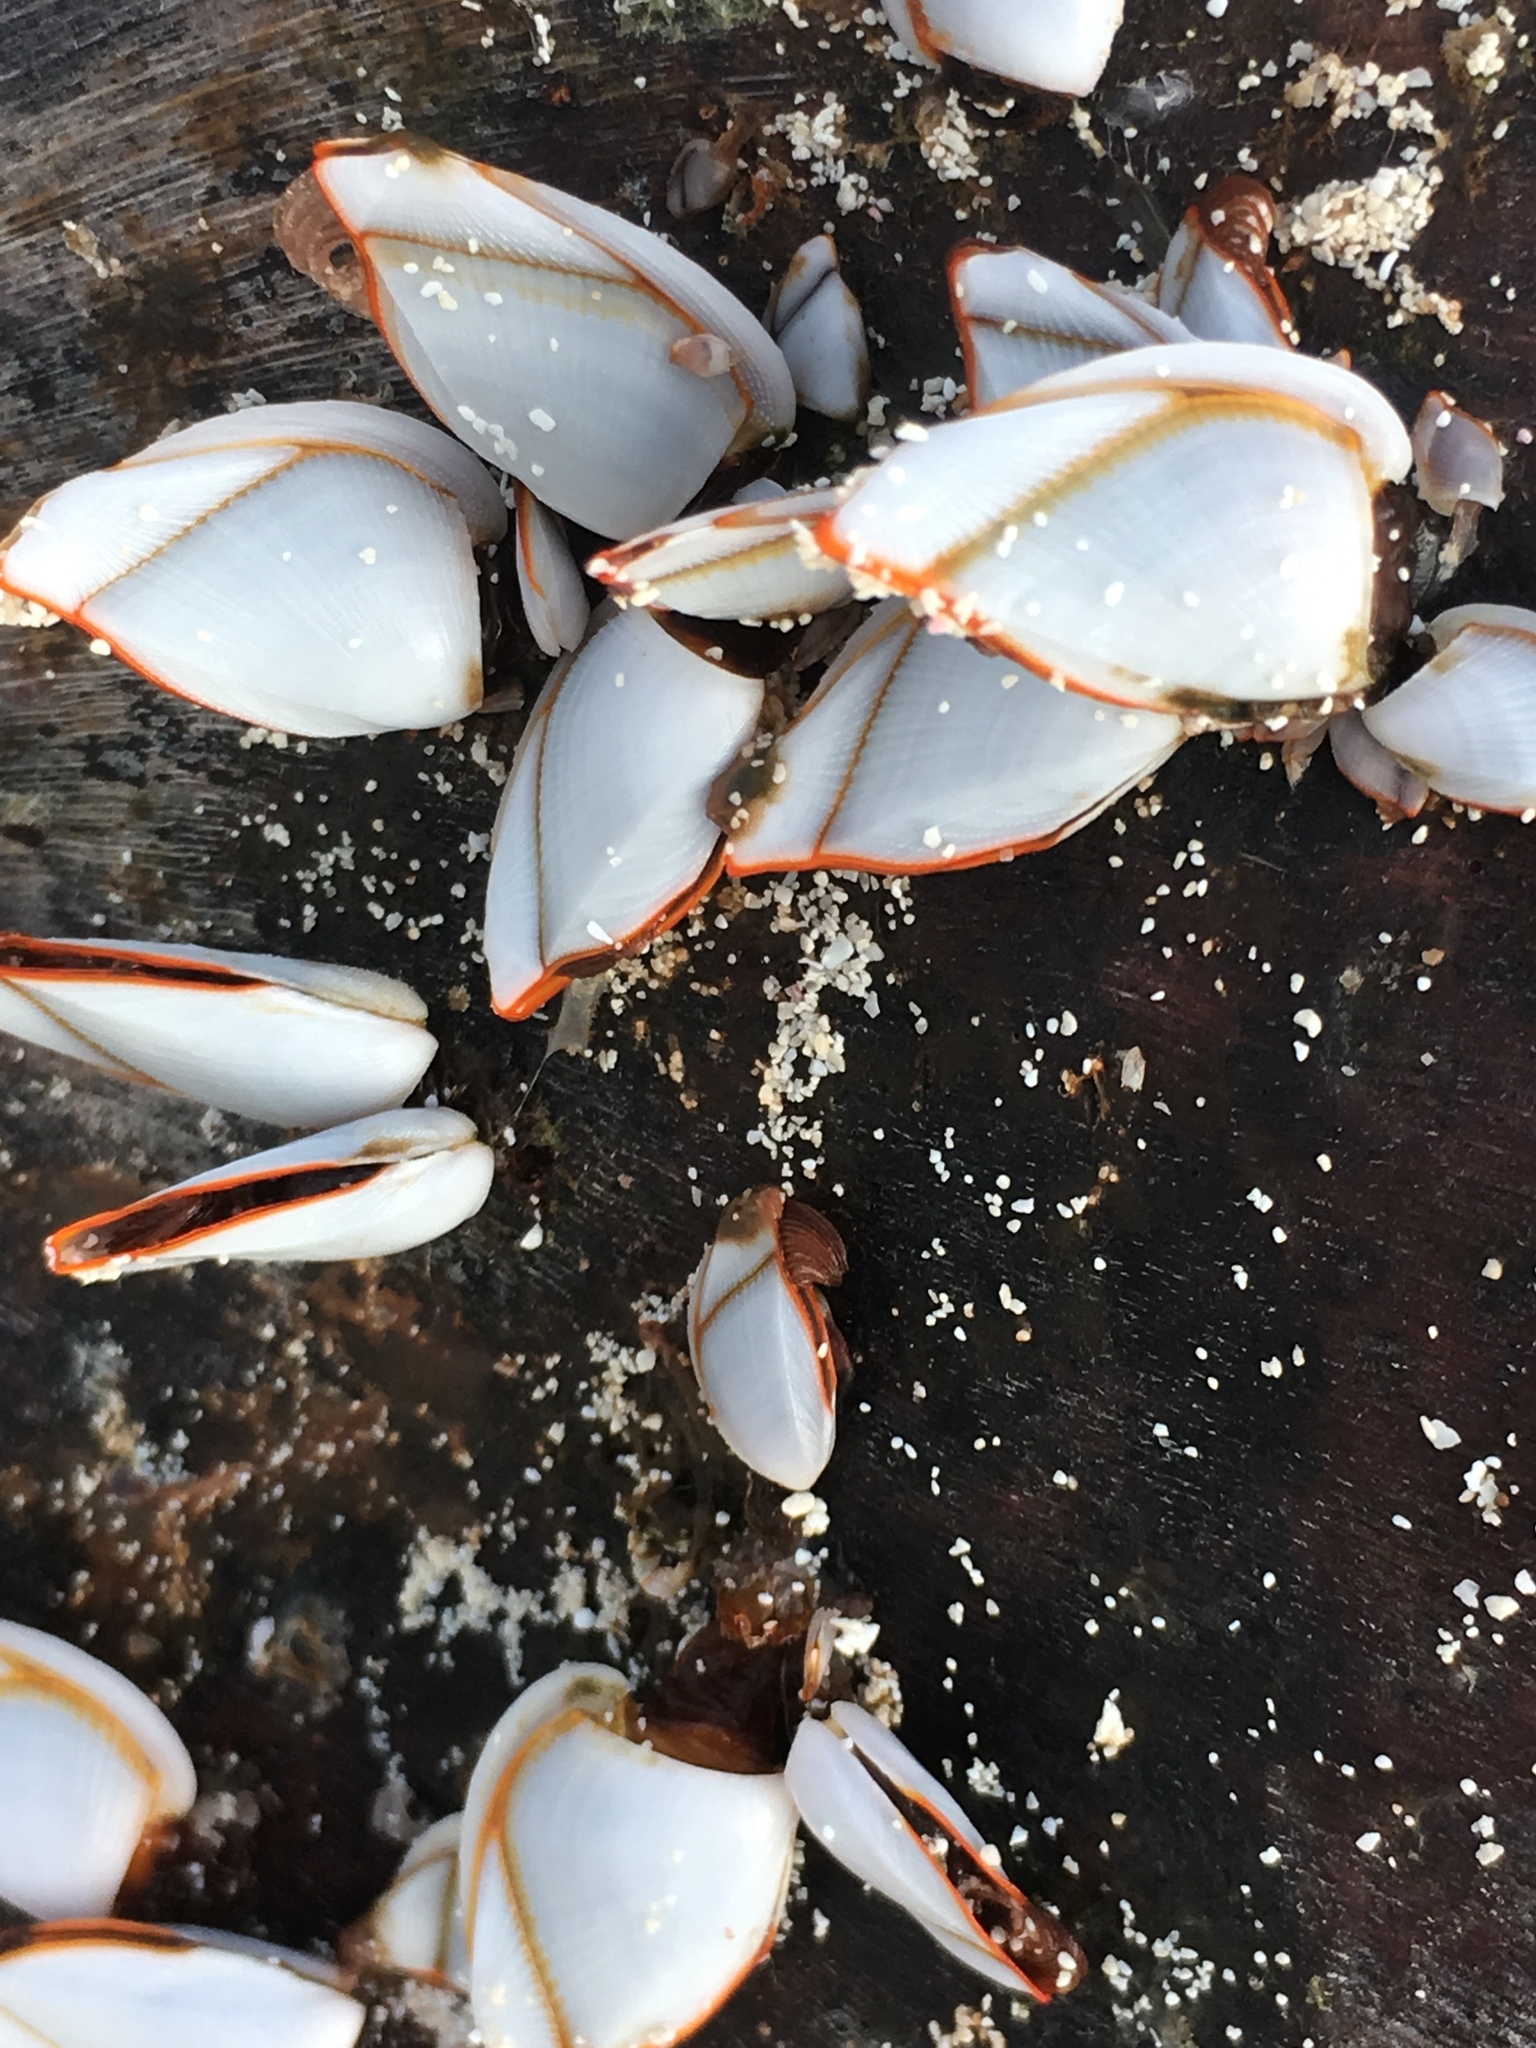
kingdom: Animalia
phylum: Arthropoda
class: Maxillopoda
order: Pedunculata
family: Lepadidae
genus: Lepas
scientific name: Lepas anserifera
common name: Goose barnacle
